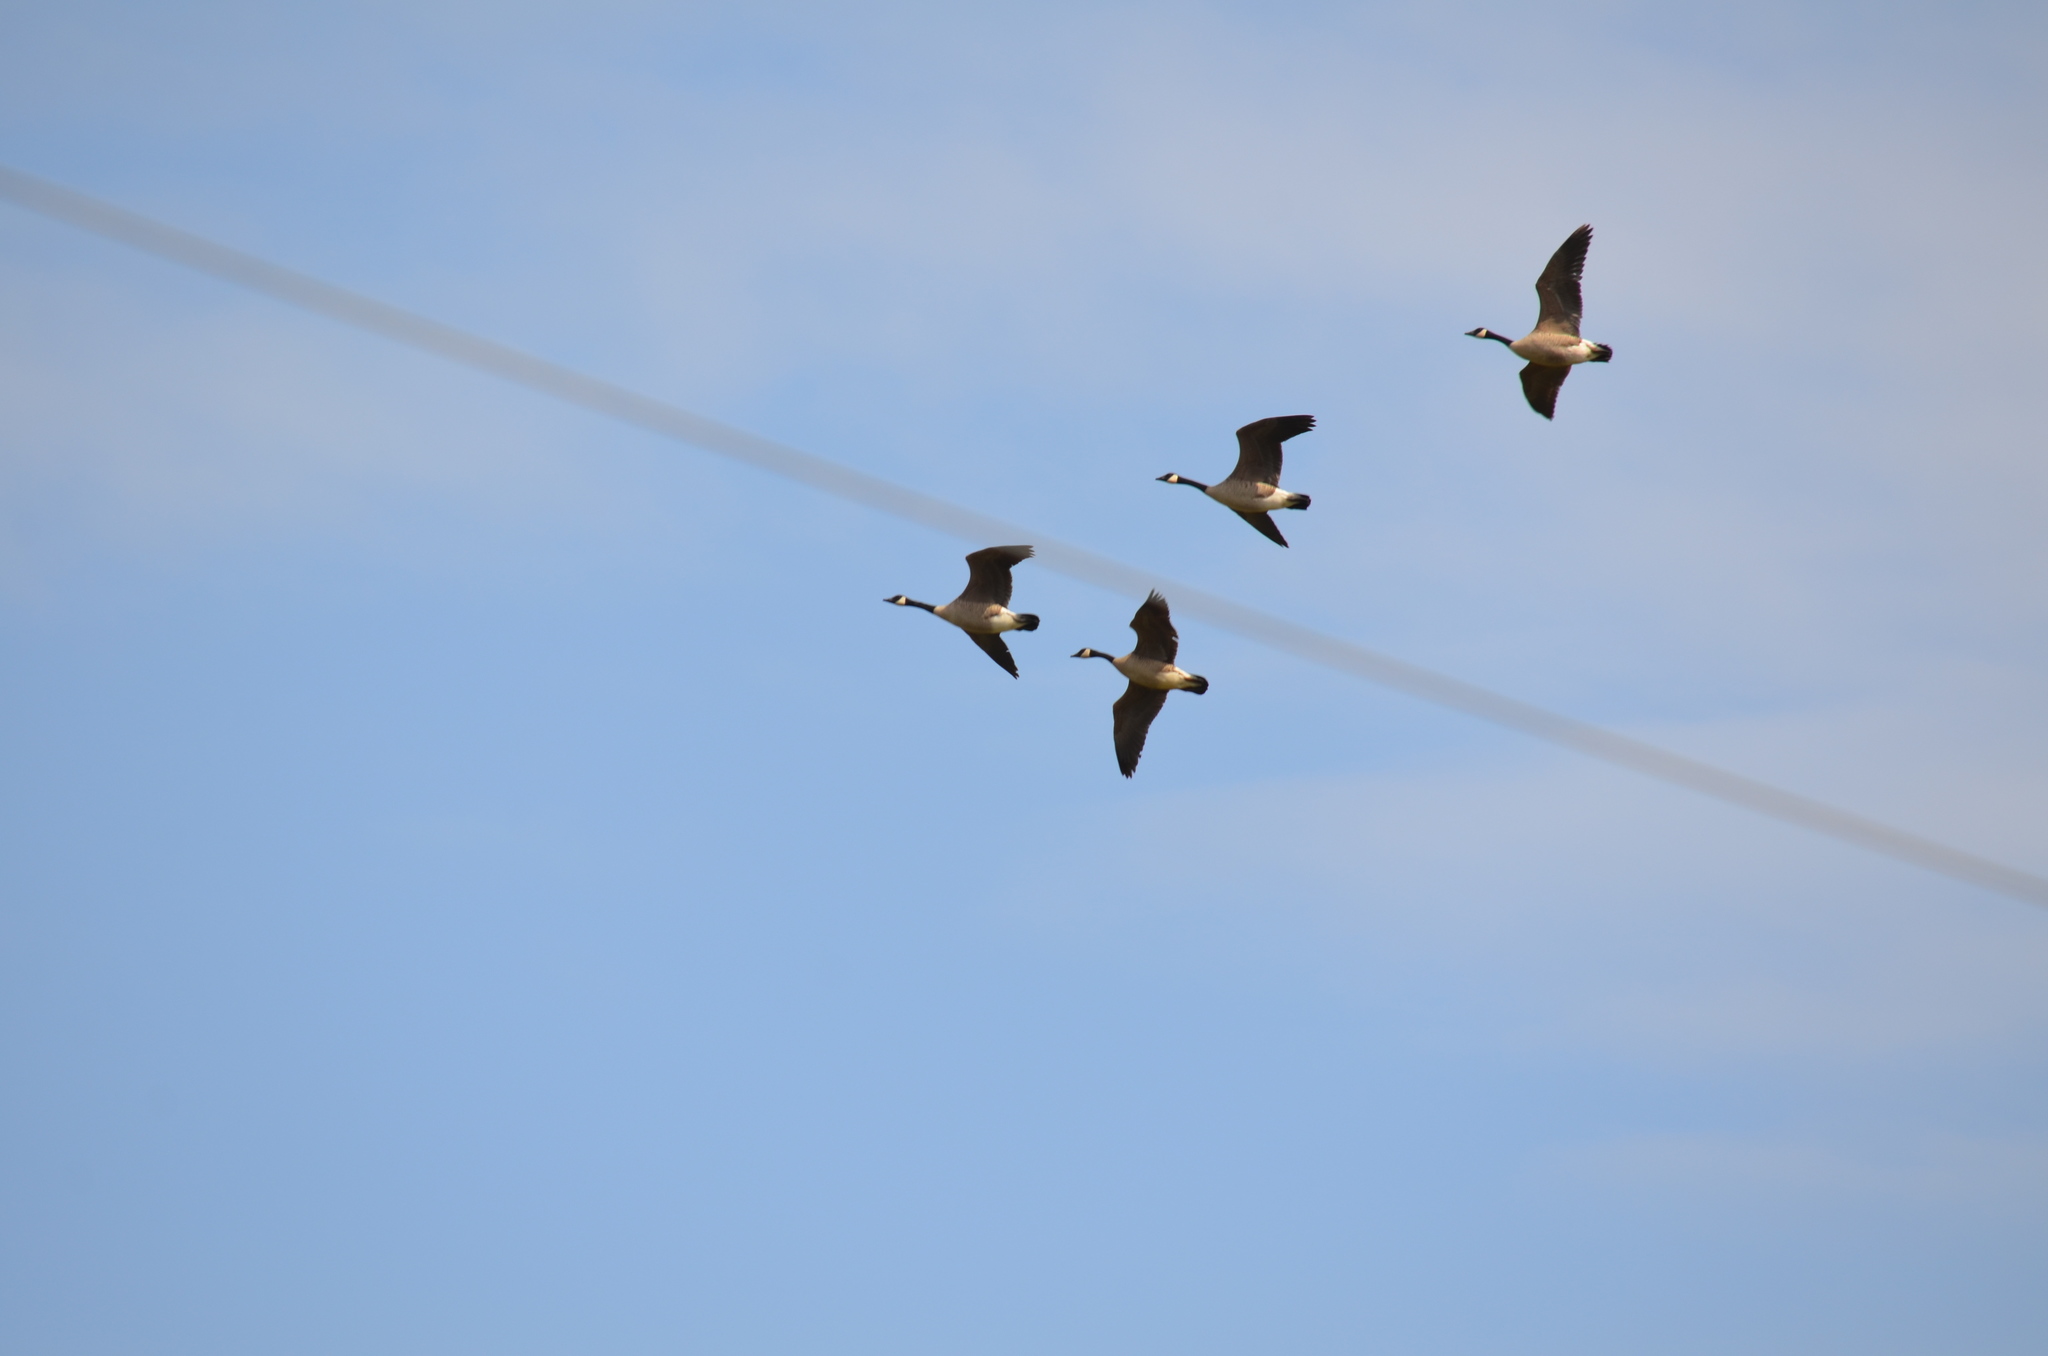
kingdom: Animalia
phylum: Chordata
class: Aves
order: Anseriformes
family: Anatidae
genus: Branta
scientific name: Branta canadensis
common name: Canada goose
